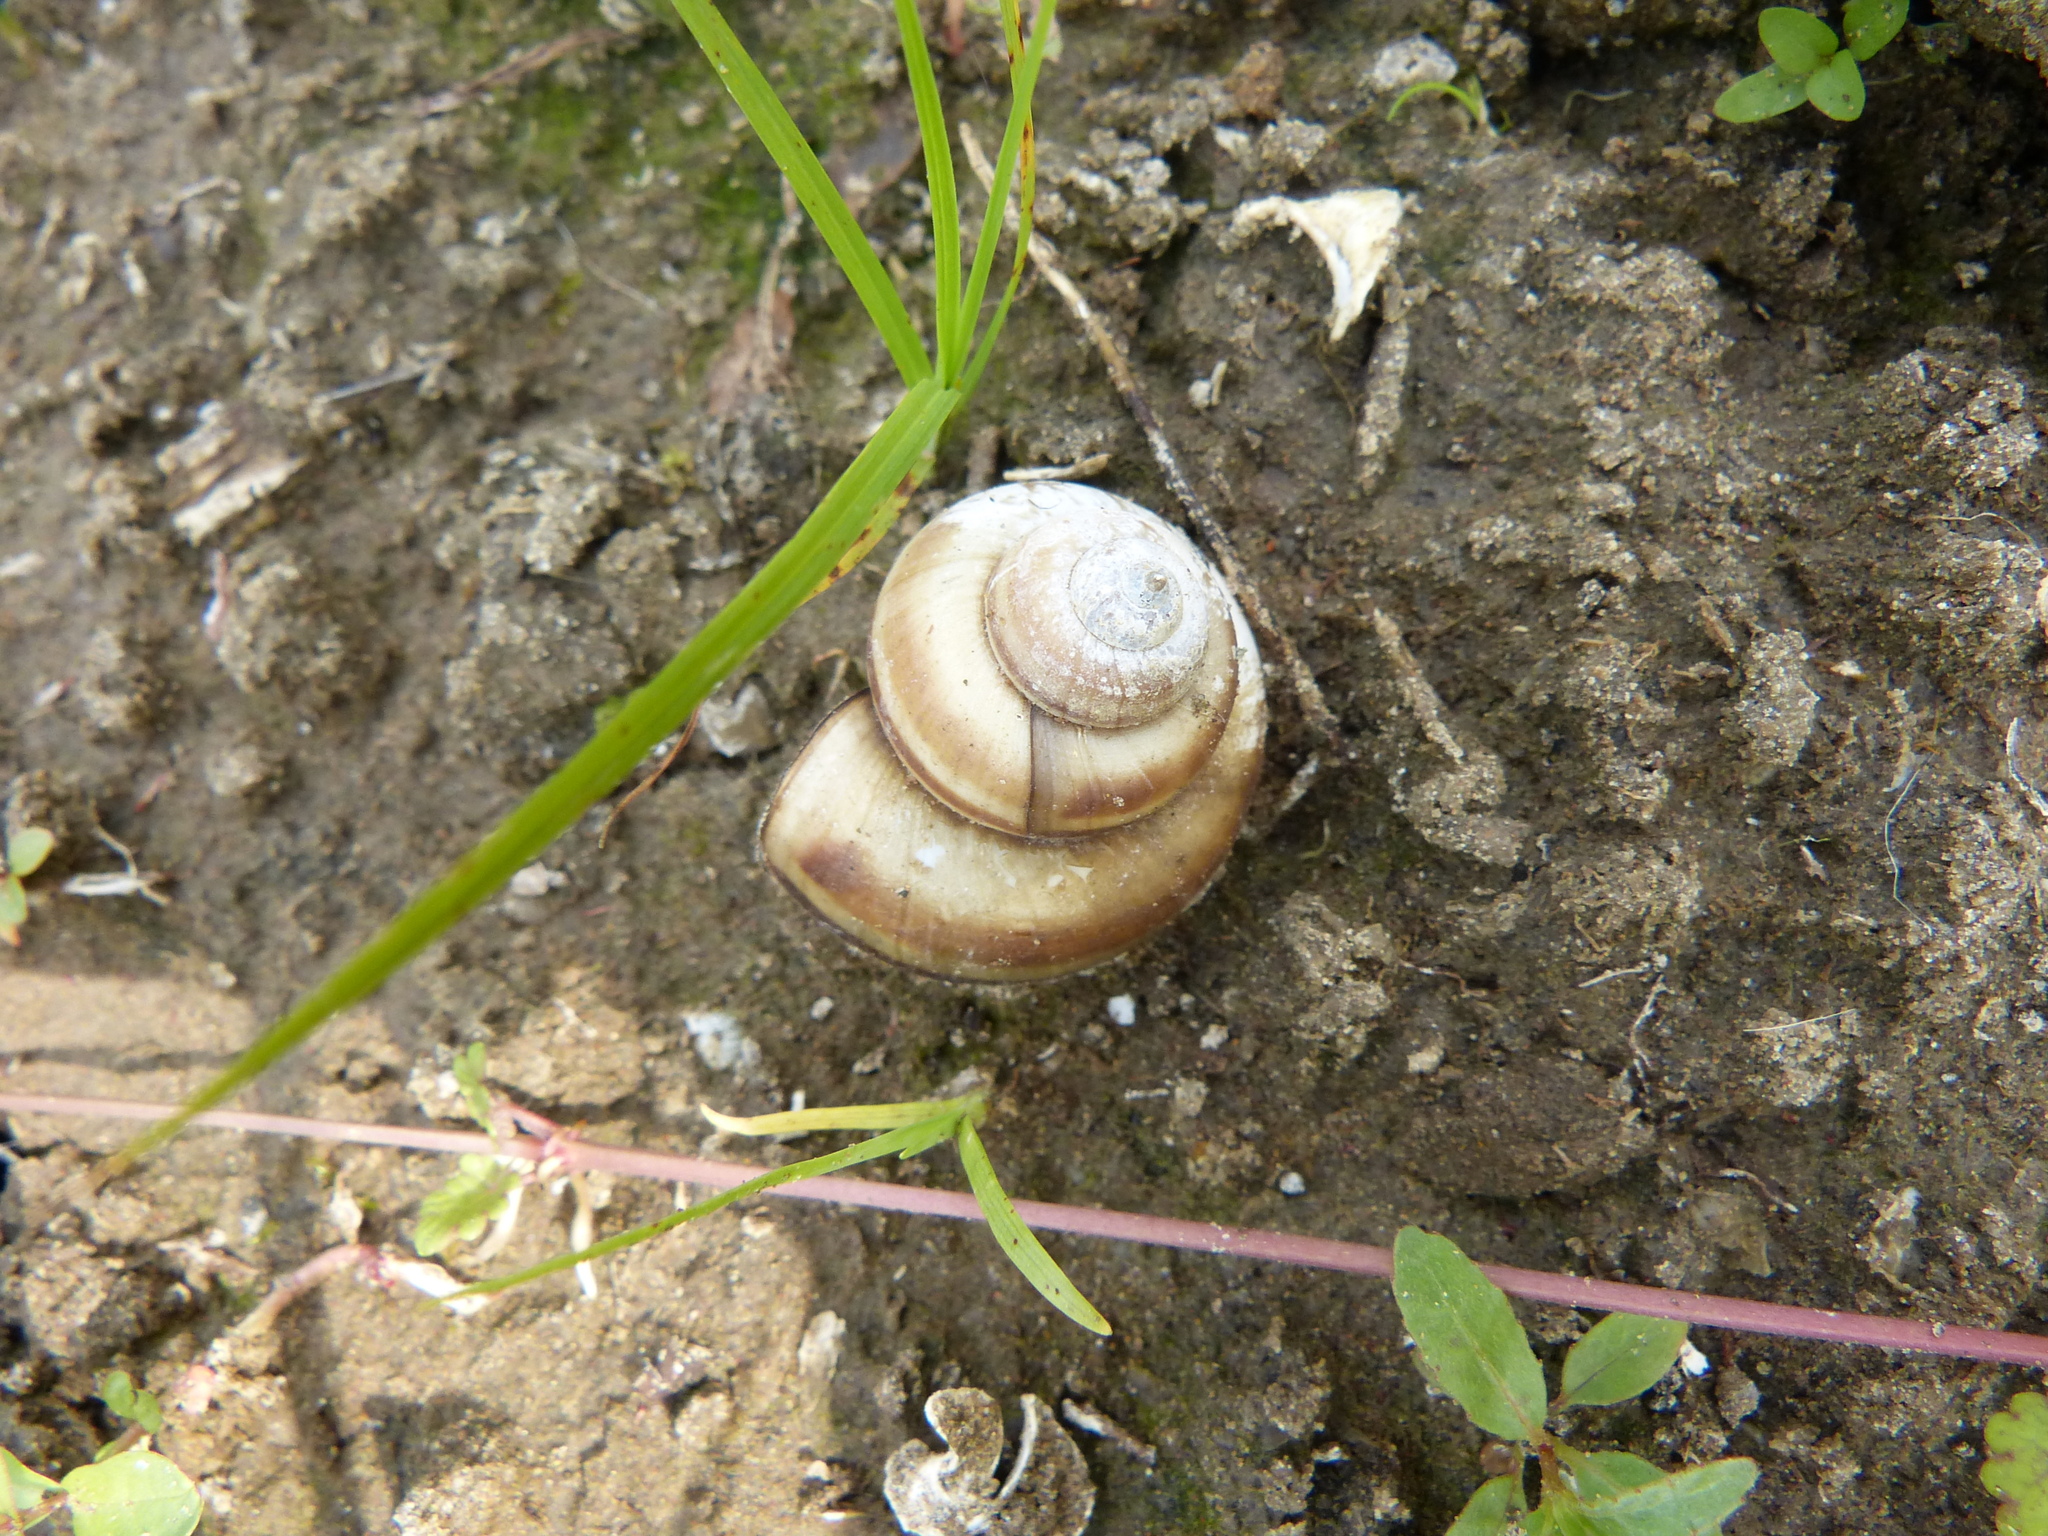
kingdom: Animalia
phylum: Mollusca
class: Gastropoda
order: Architaenioglossa
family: Viviparidae
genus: Viviparus
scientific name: Viviparus contectus
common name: Lister's river snail
